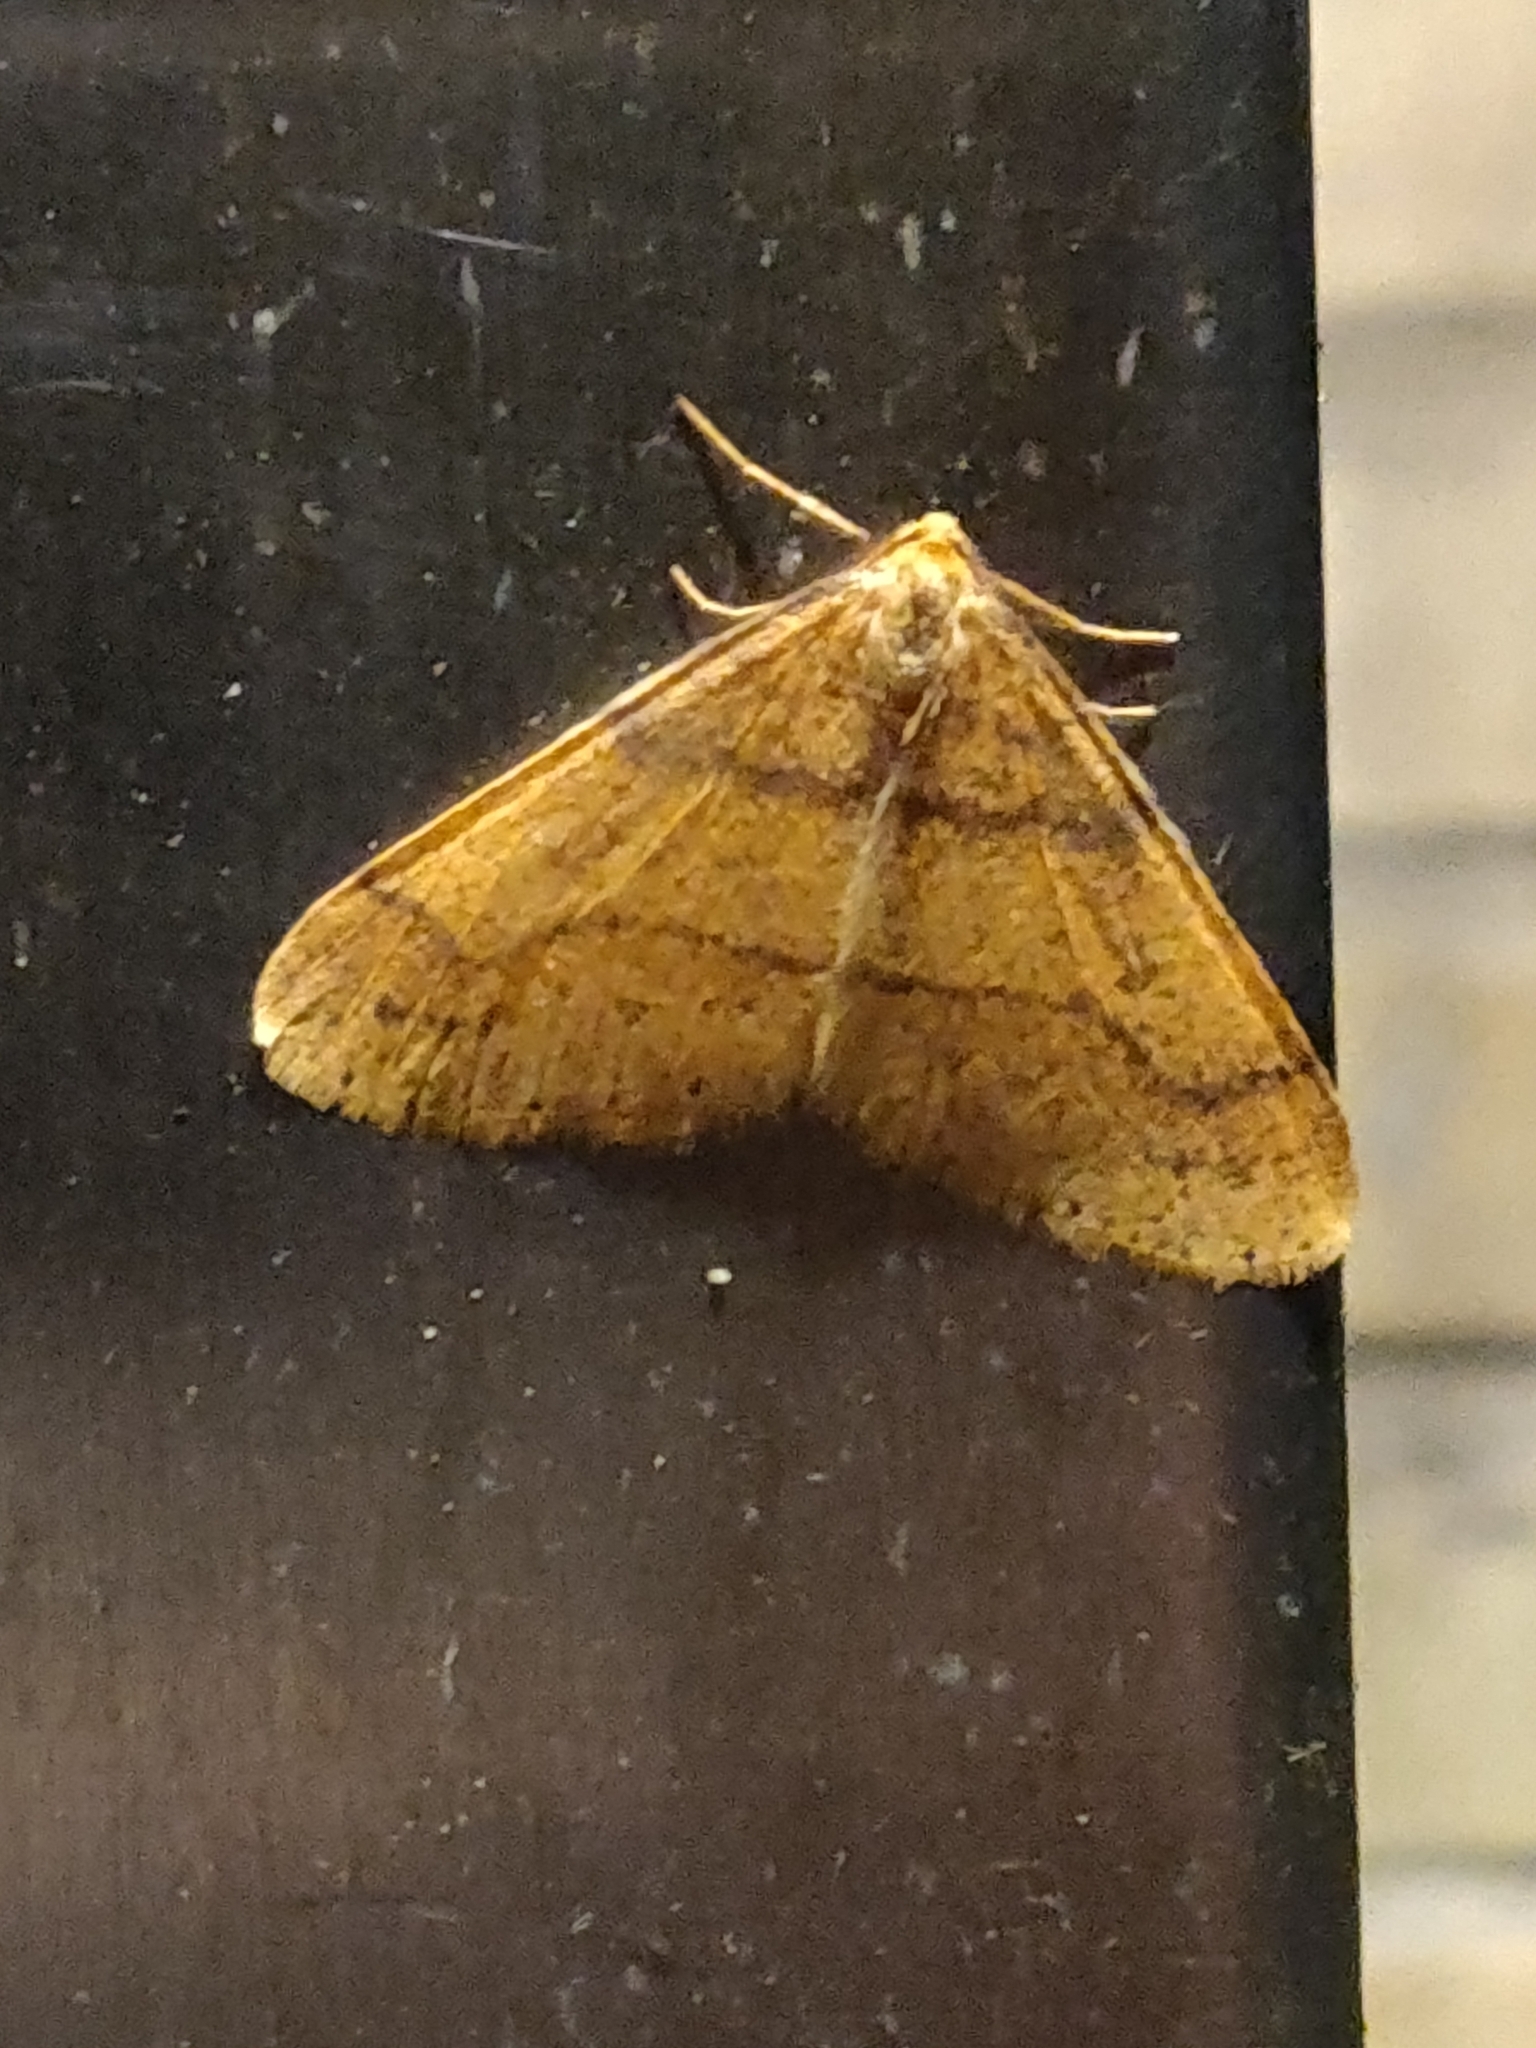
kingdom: Animalia
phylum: Arthropoda
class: Insecta
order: Lepidoptera
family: Geometridae
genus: Agriopis
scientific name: Agriopis aurantiaria
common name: Scarce umber
